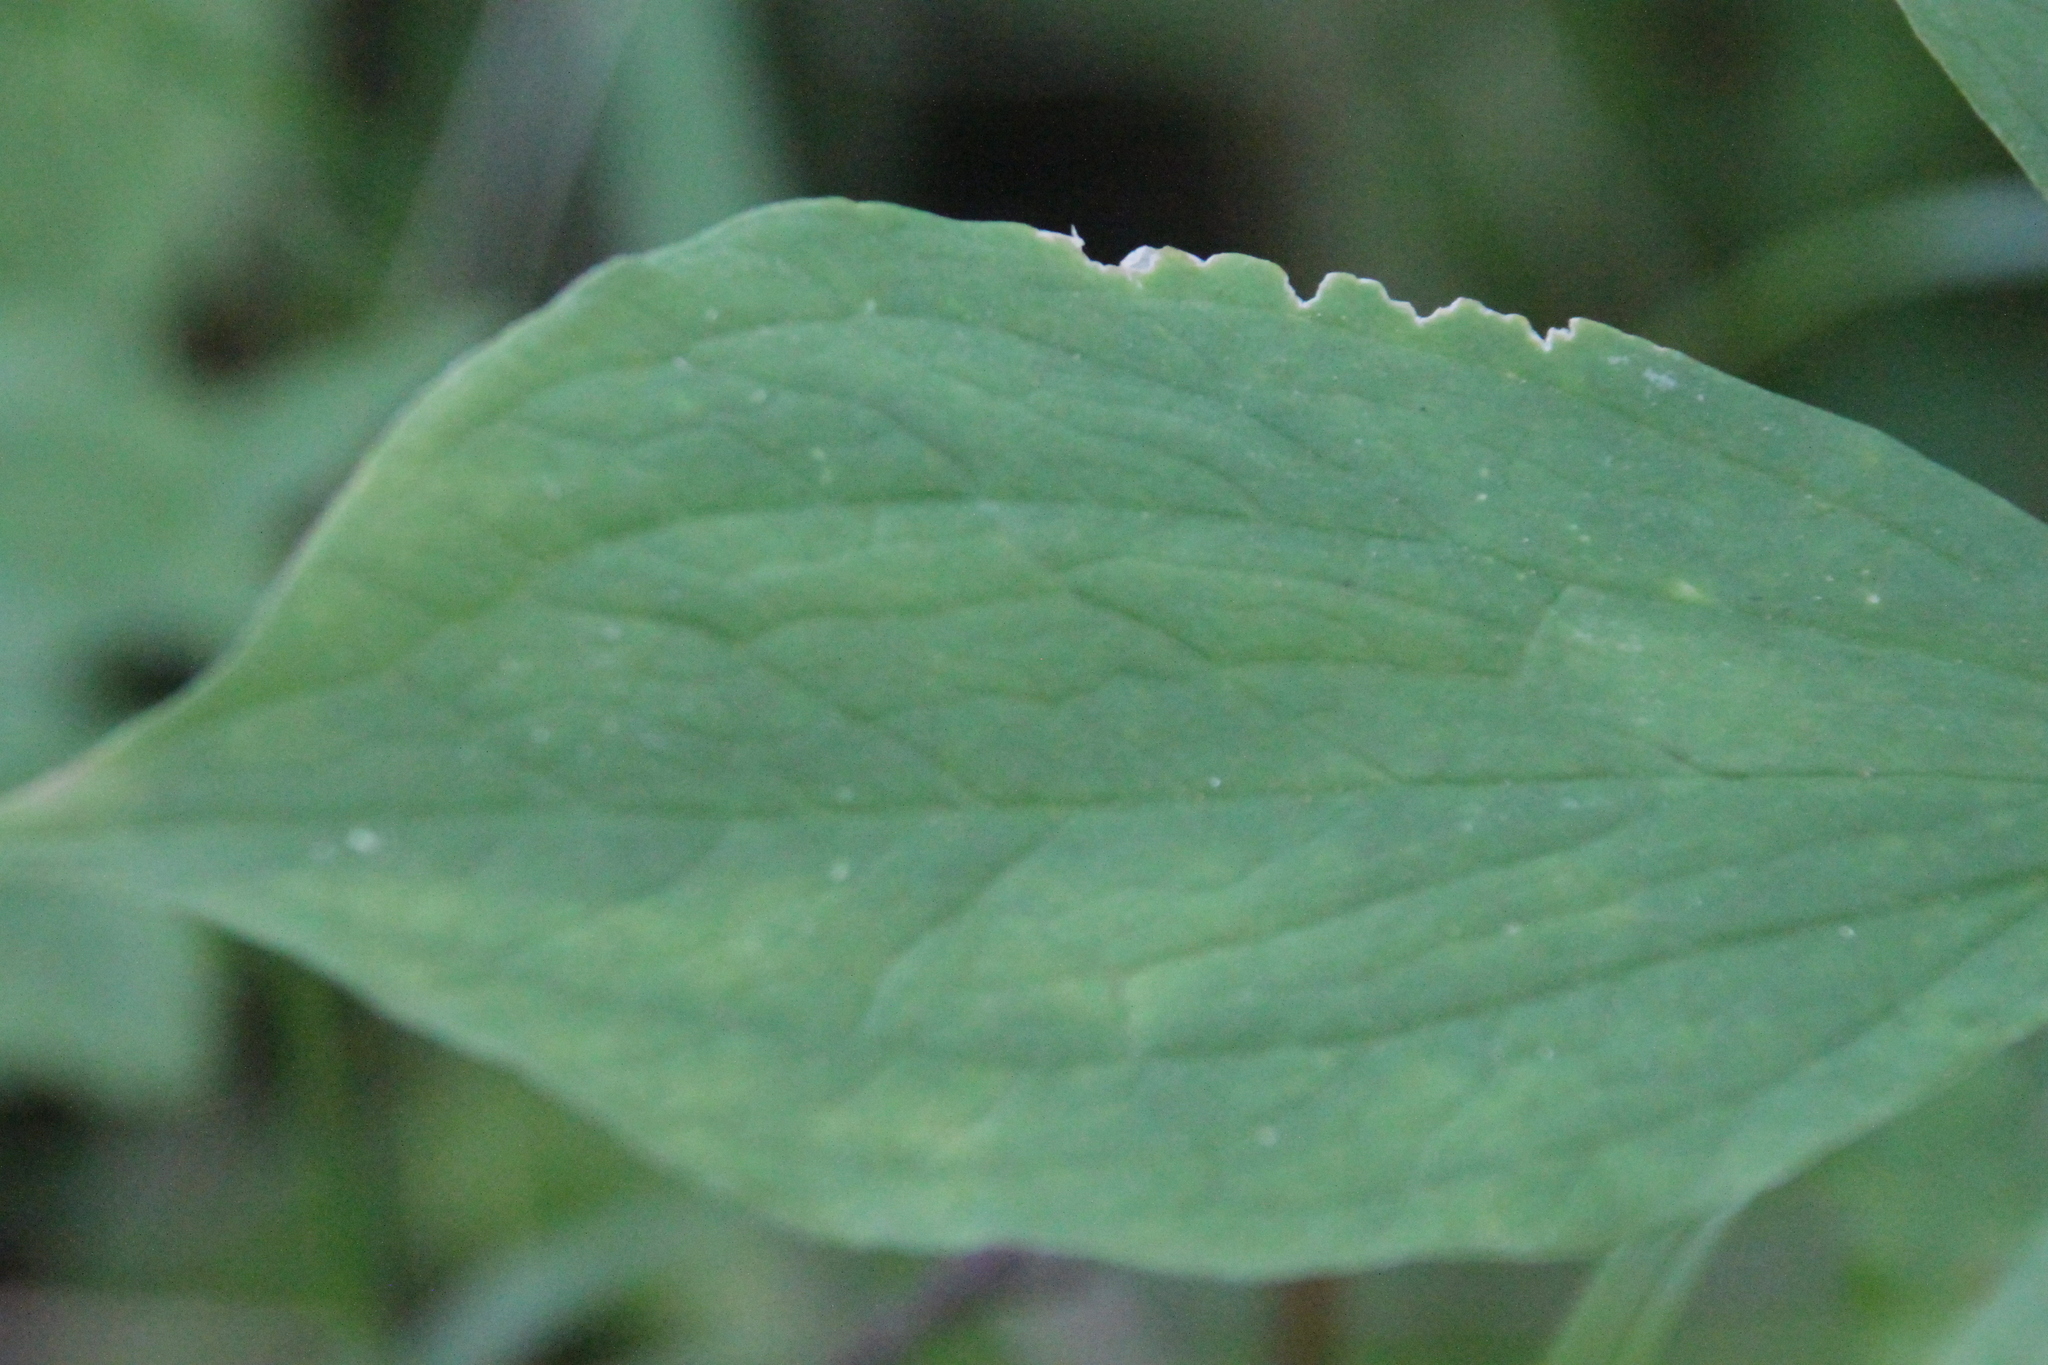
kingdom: Plantae
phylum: Tracheophyta
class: Liliopsida
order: Liliales
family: Melanthiaceae
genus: Paris
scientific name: Paris quadrifolia
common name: Herb-paris
